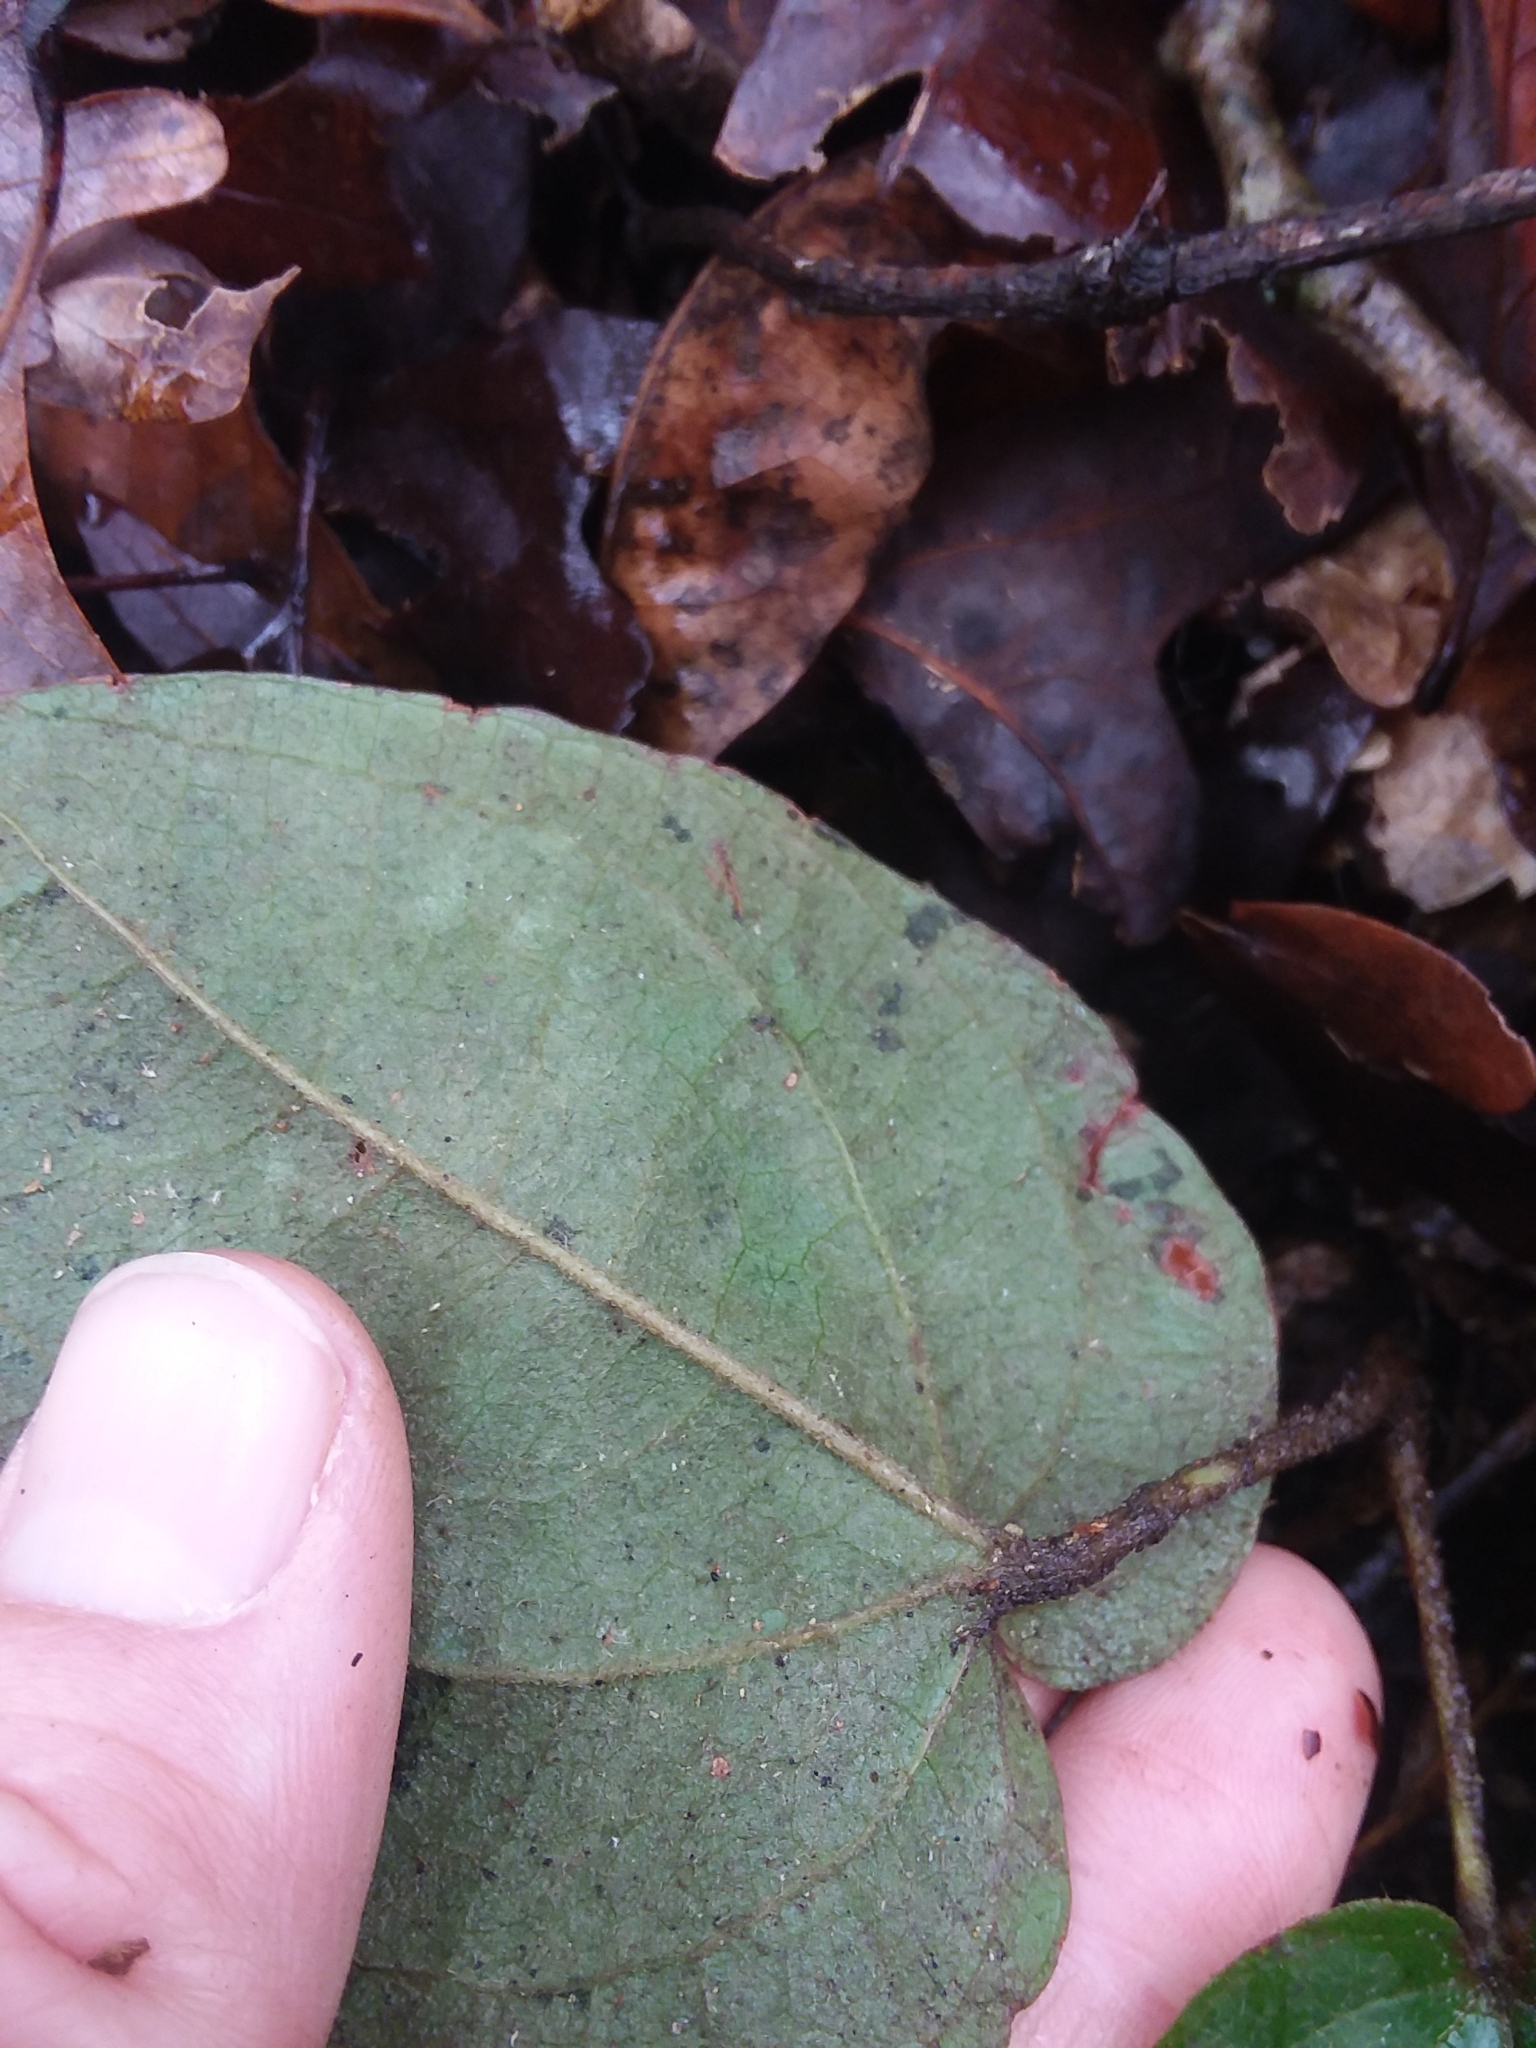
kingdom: Plantae
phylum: Tracheophyta
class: Liliopsida
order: Liliales
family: Smilacaceae
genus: Smilax
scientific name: Smilax pumila
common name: Sarsaparilla-vine
